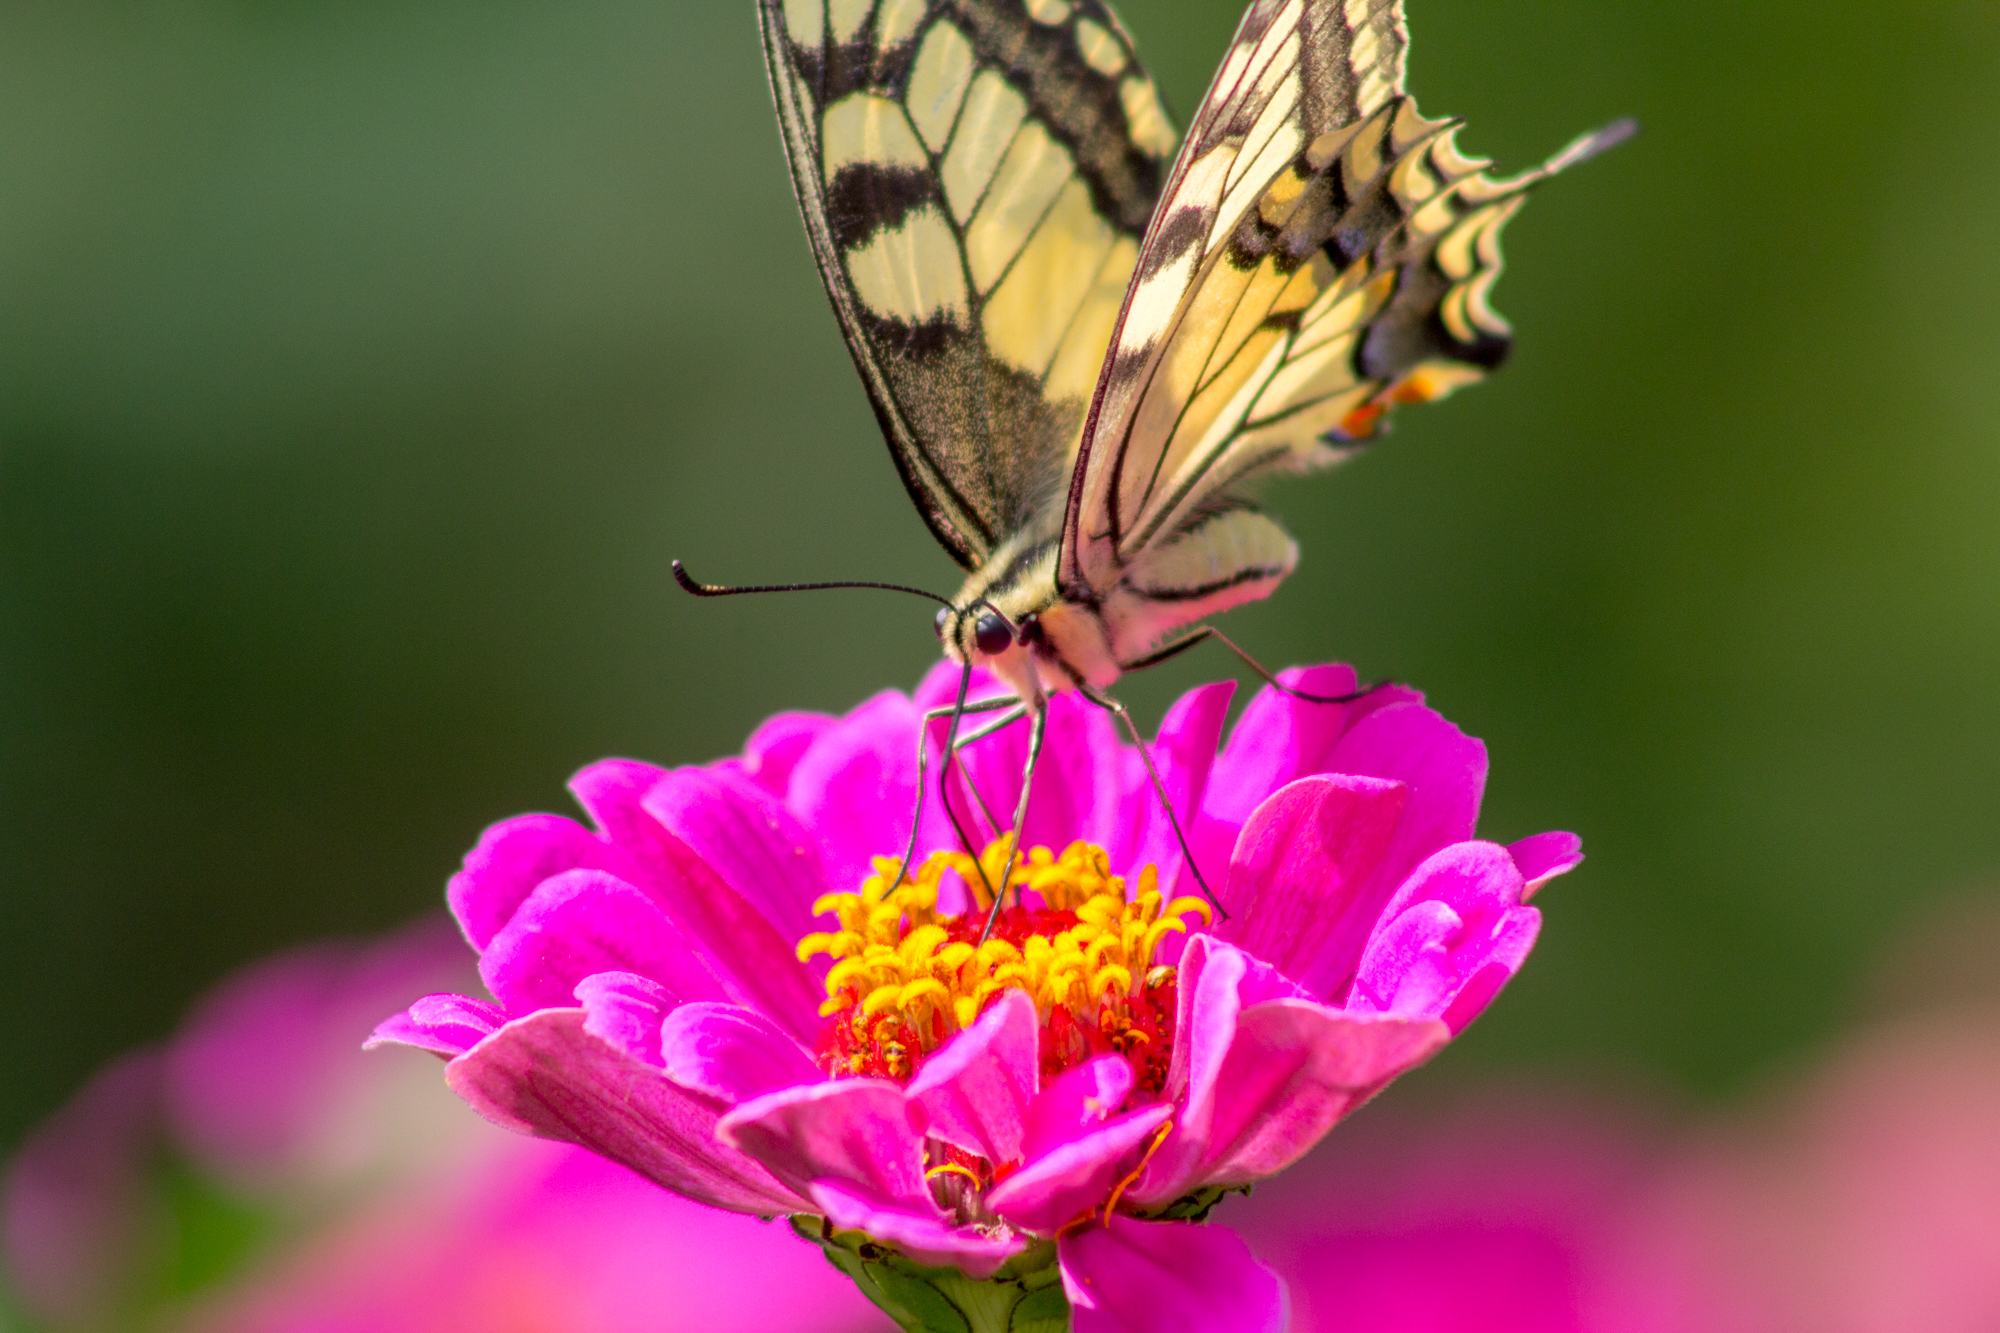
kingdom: Animalia
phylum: Arthropoda
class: Insecta
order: Lepidoptera
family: Papilionidae
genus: Papilio
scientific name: Papilio machaon
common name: Swallowtail
